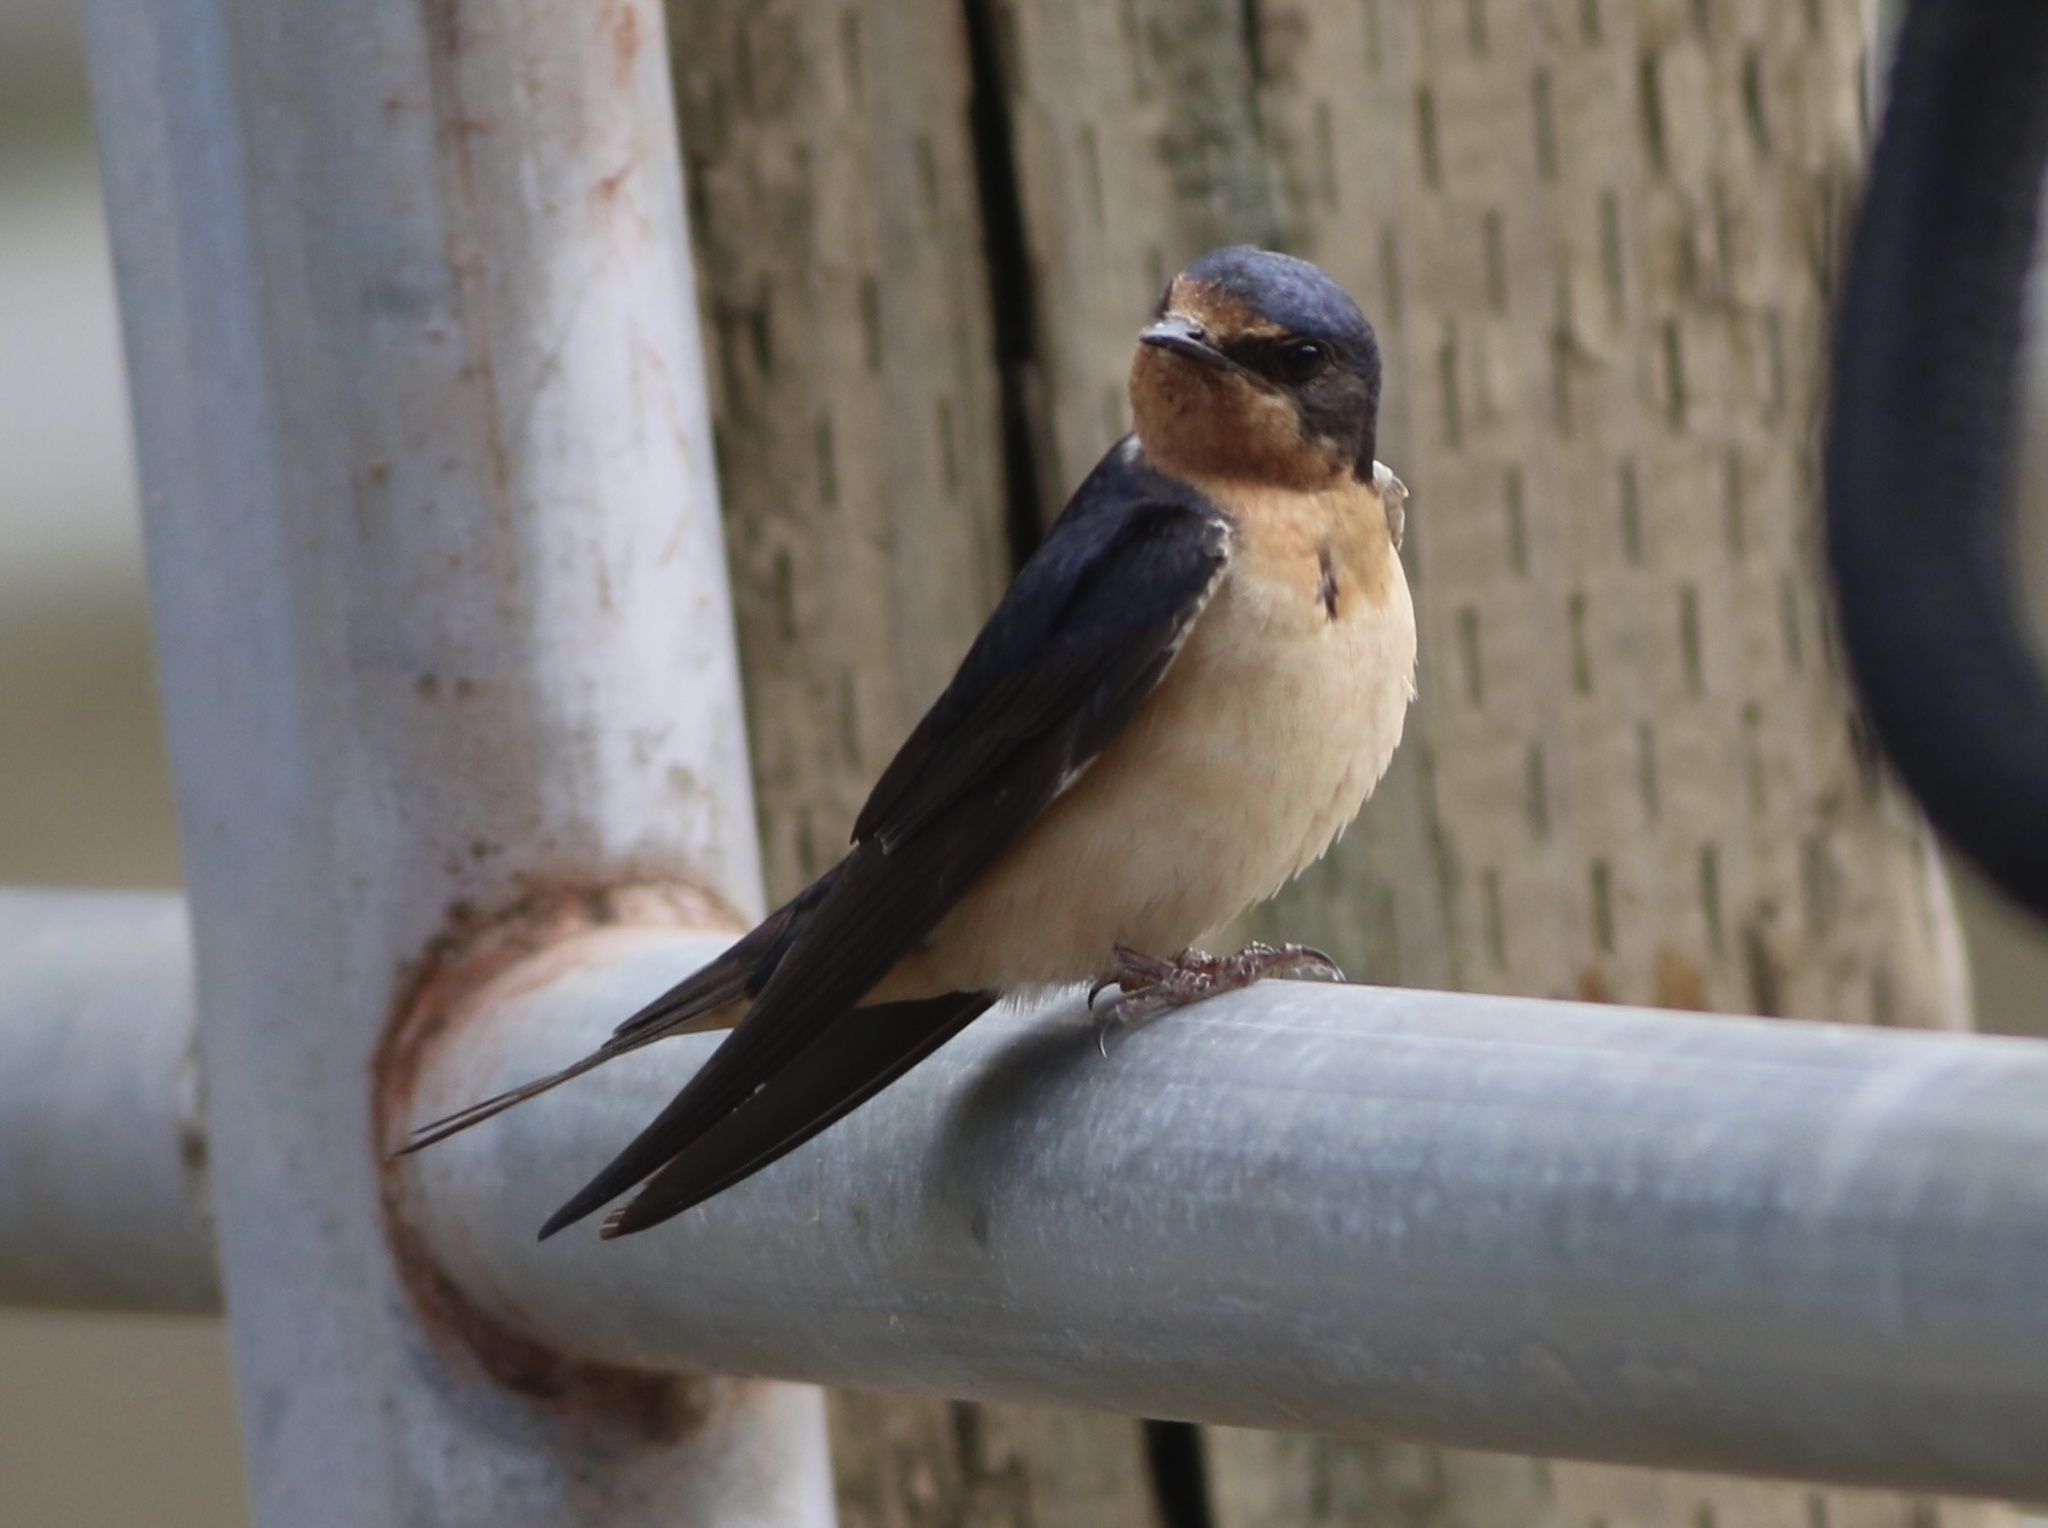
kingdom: Animalia
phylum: Chordata
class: Aves
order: Passeriformes
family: Hirundinidae
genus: Hirundo
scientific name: Hirundo rustica
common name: Barn swallow
